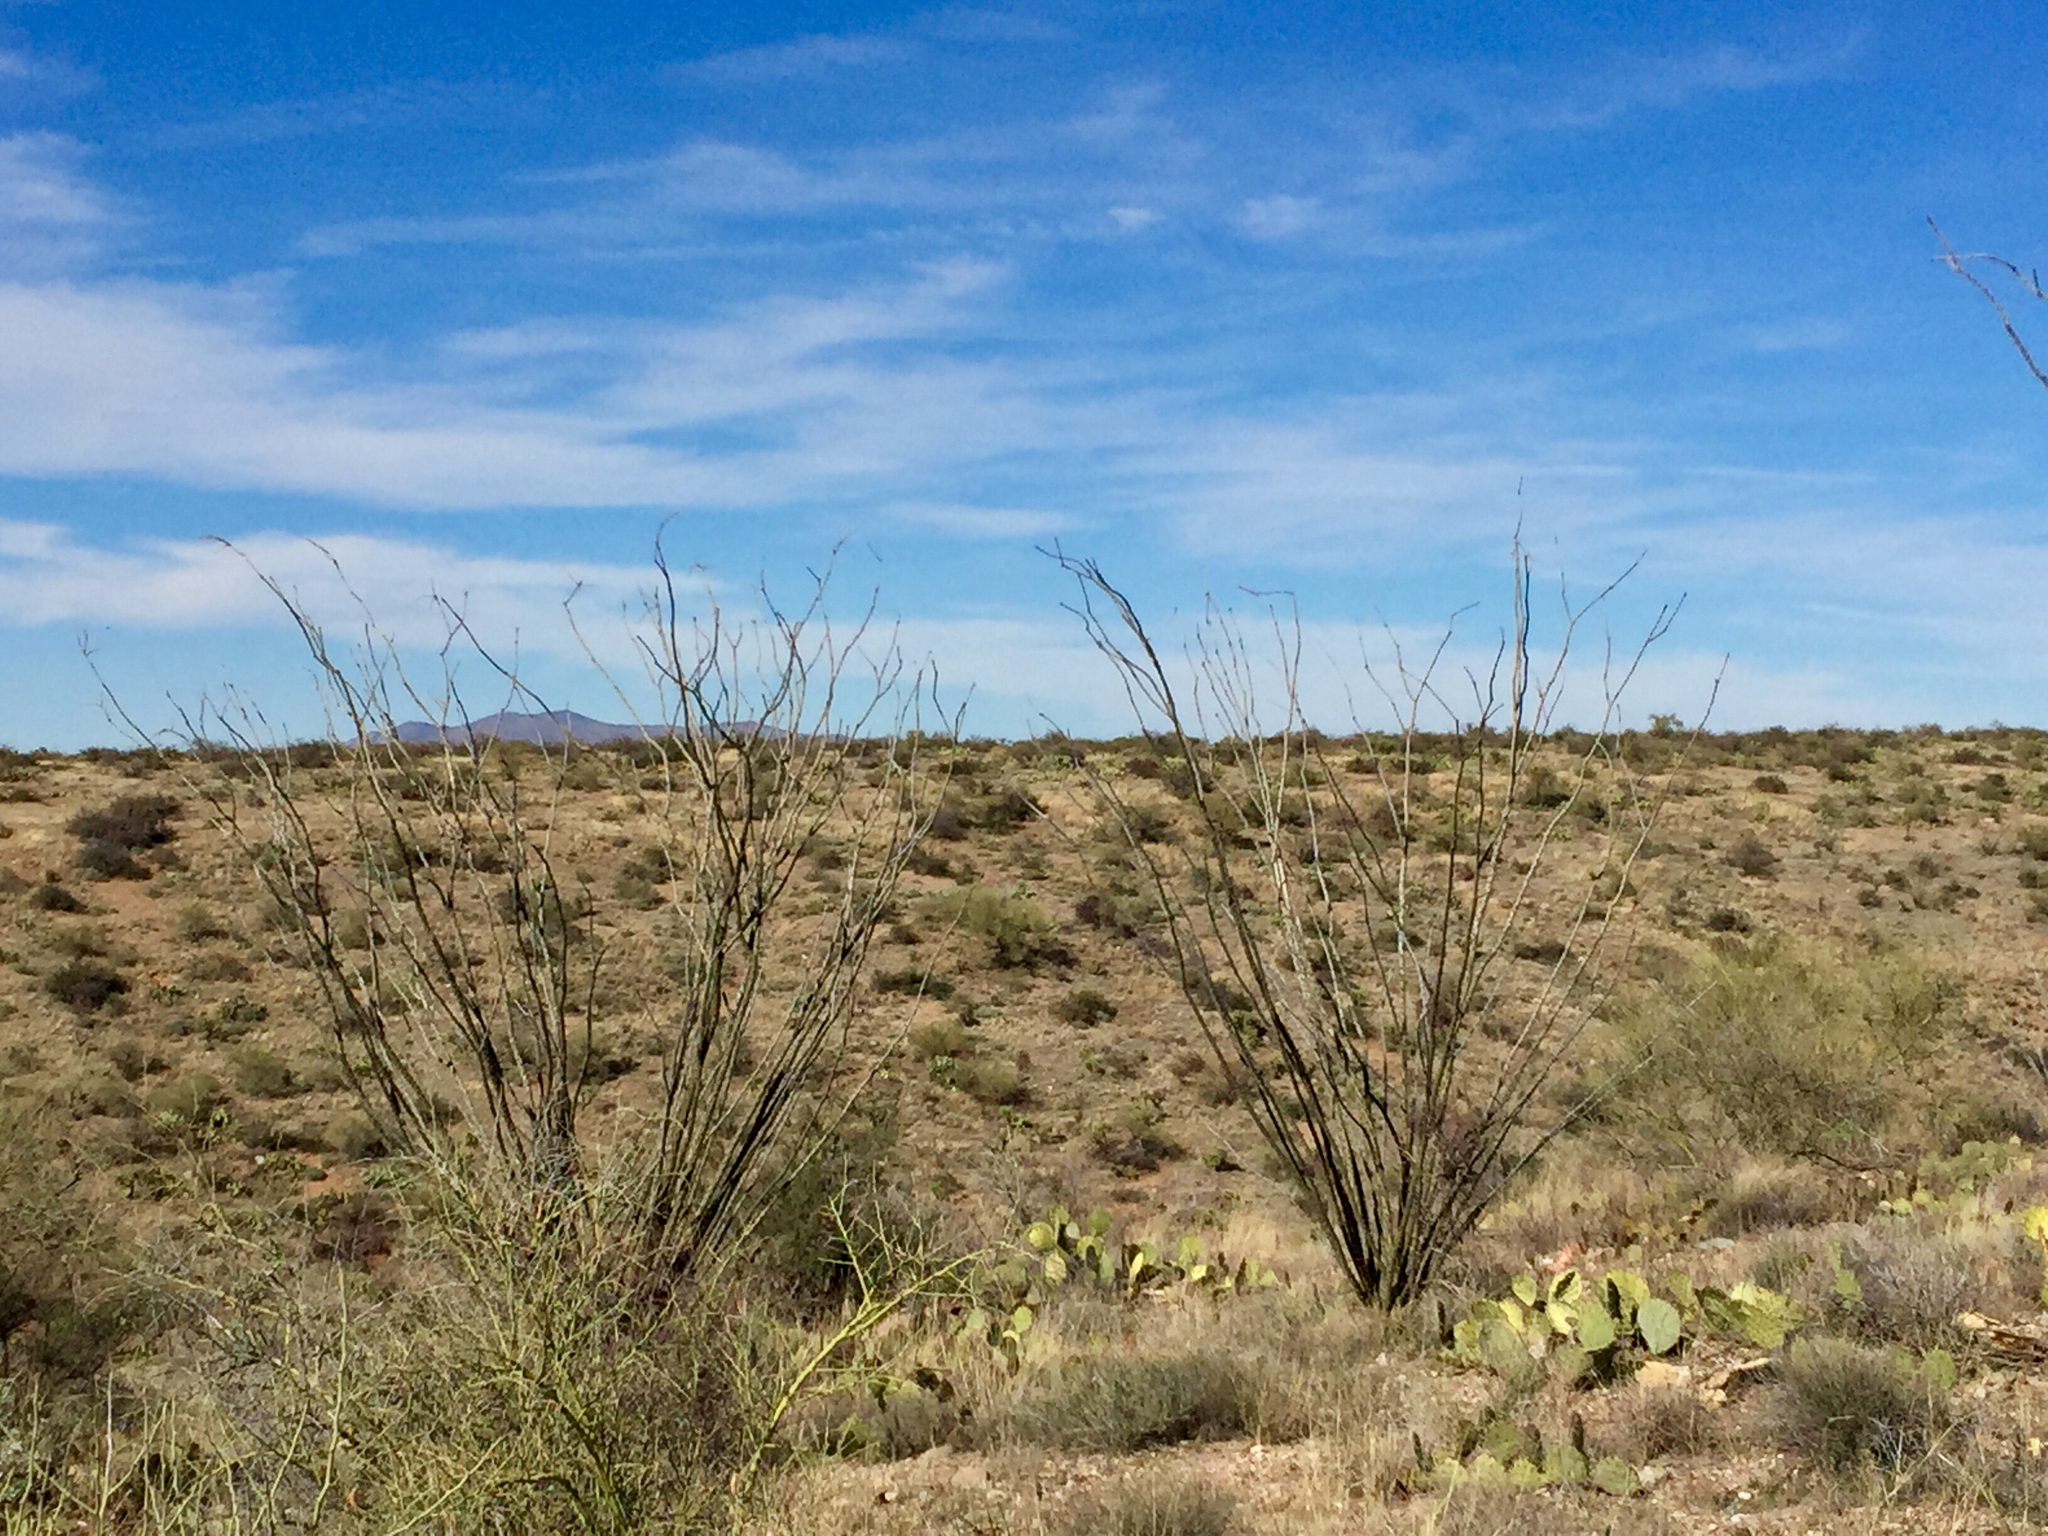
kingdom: Plantae
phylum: Tracheophyta
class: Magnoliopsida
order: Ericales
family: Fouquieriaceae
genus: Fouquieria
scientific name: Fouquieria splendens
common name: Vine-cactus
